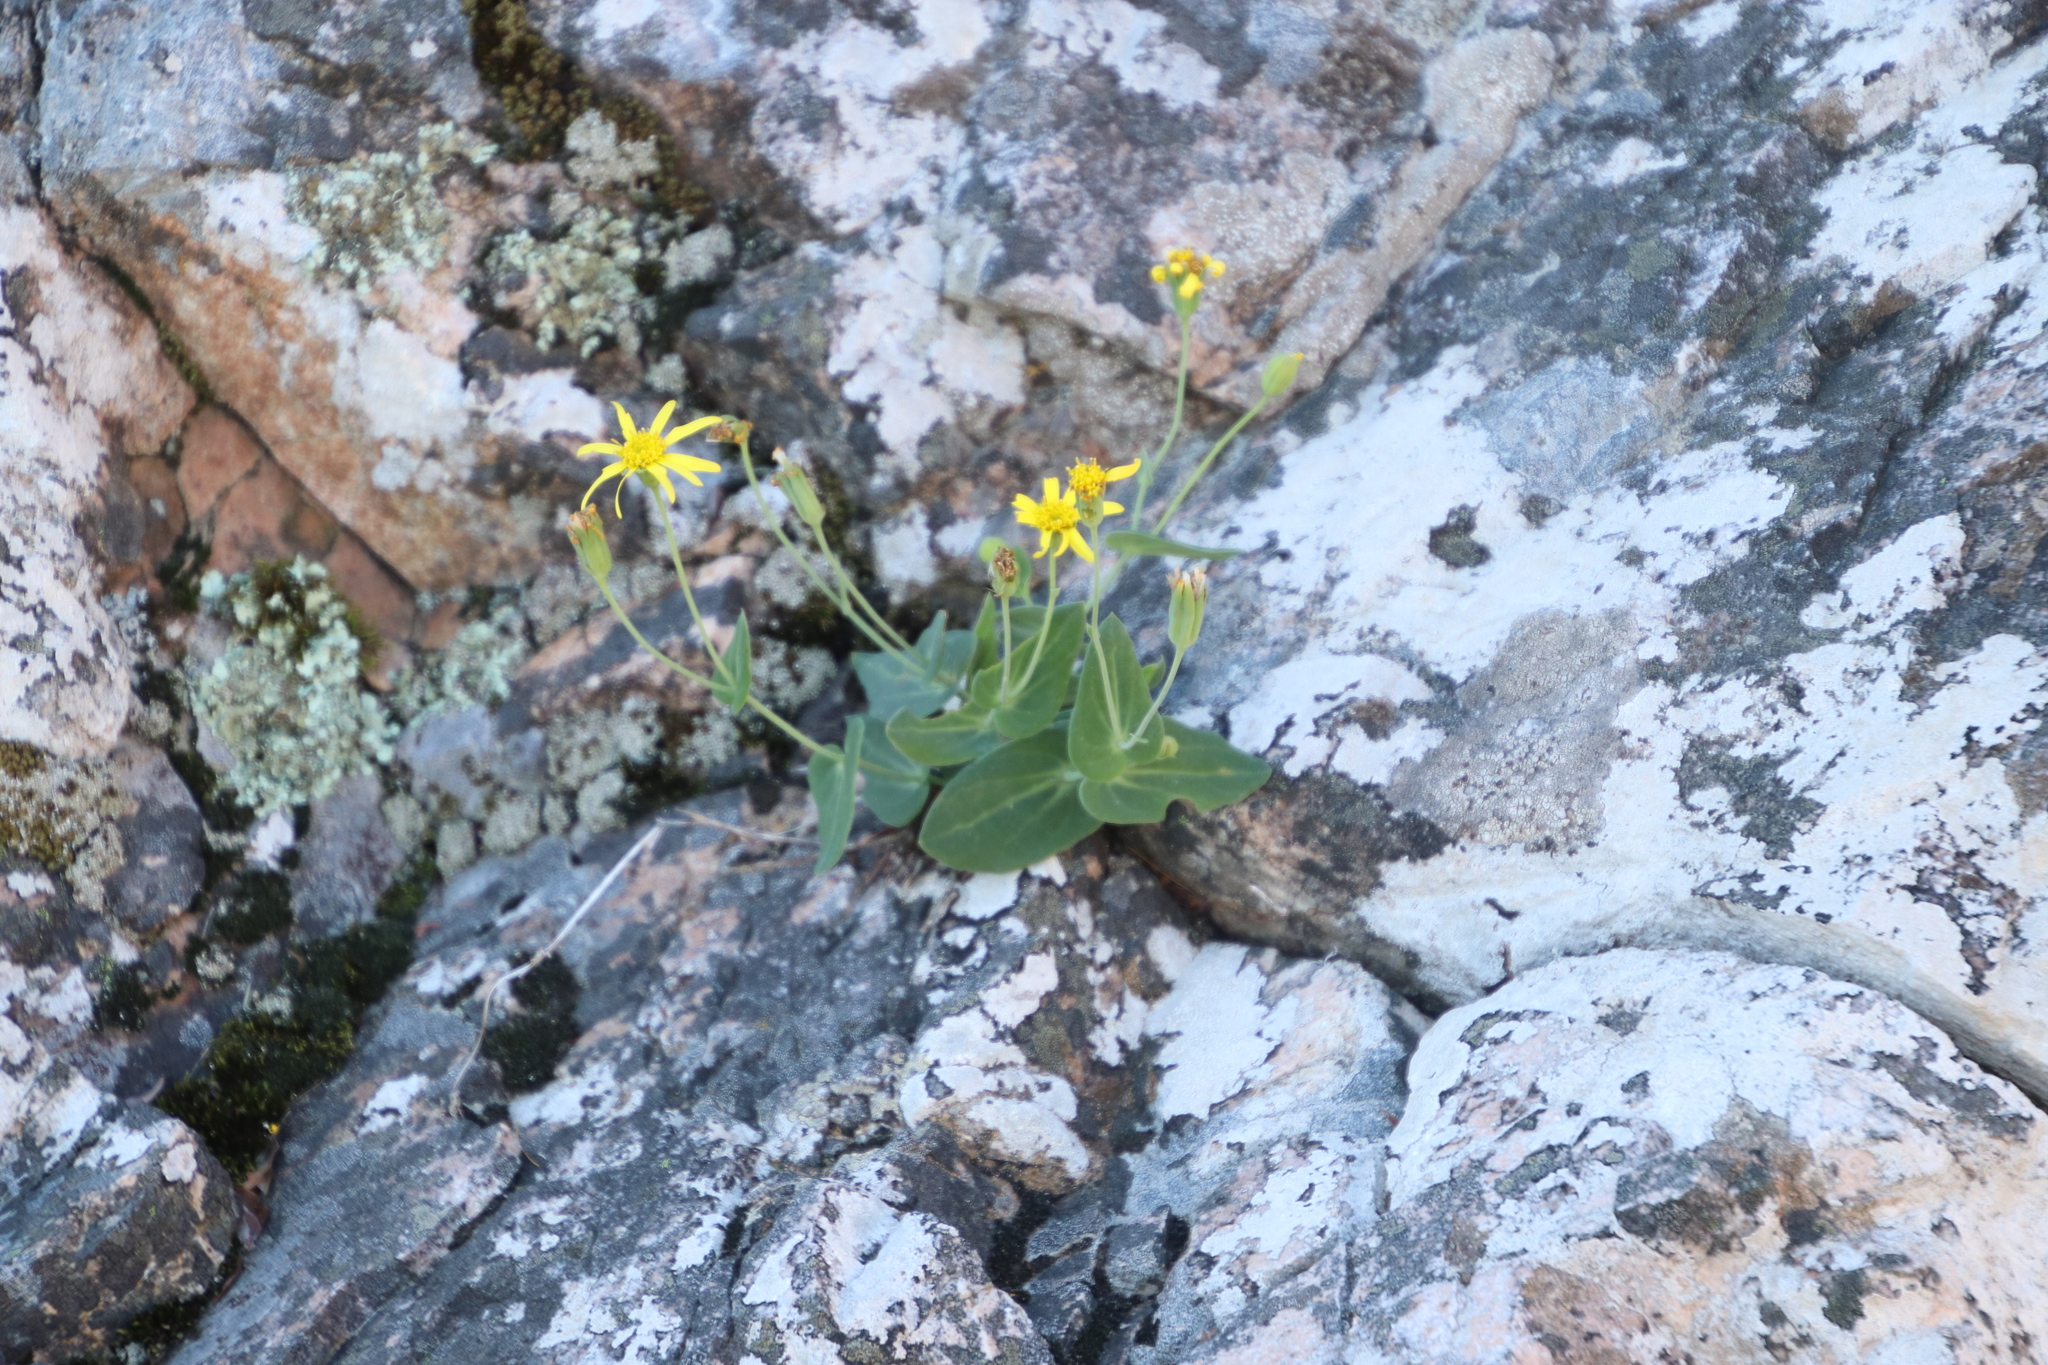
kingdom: Plantae
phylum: Tracheophyta
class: Magnoliopsida
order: Asterales
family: Asteraceae
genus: Othonna
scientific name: Othonna perfoliata
